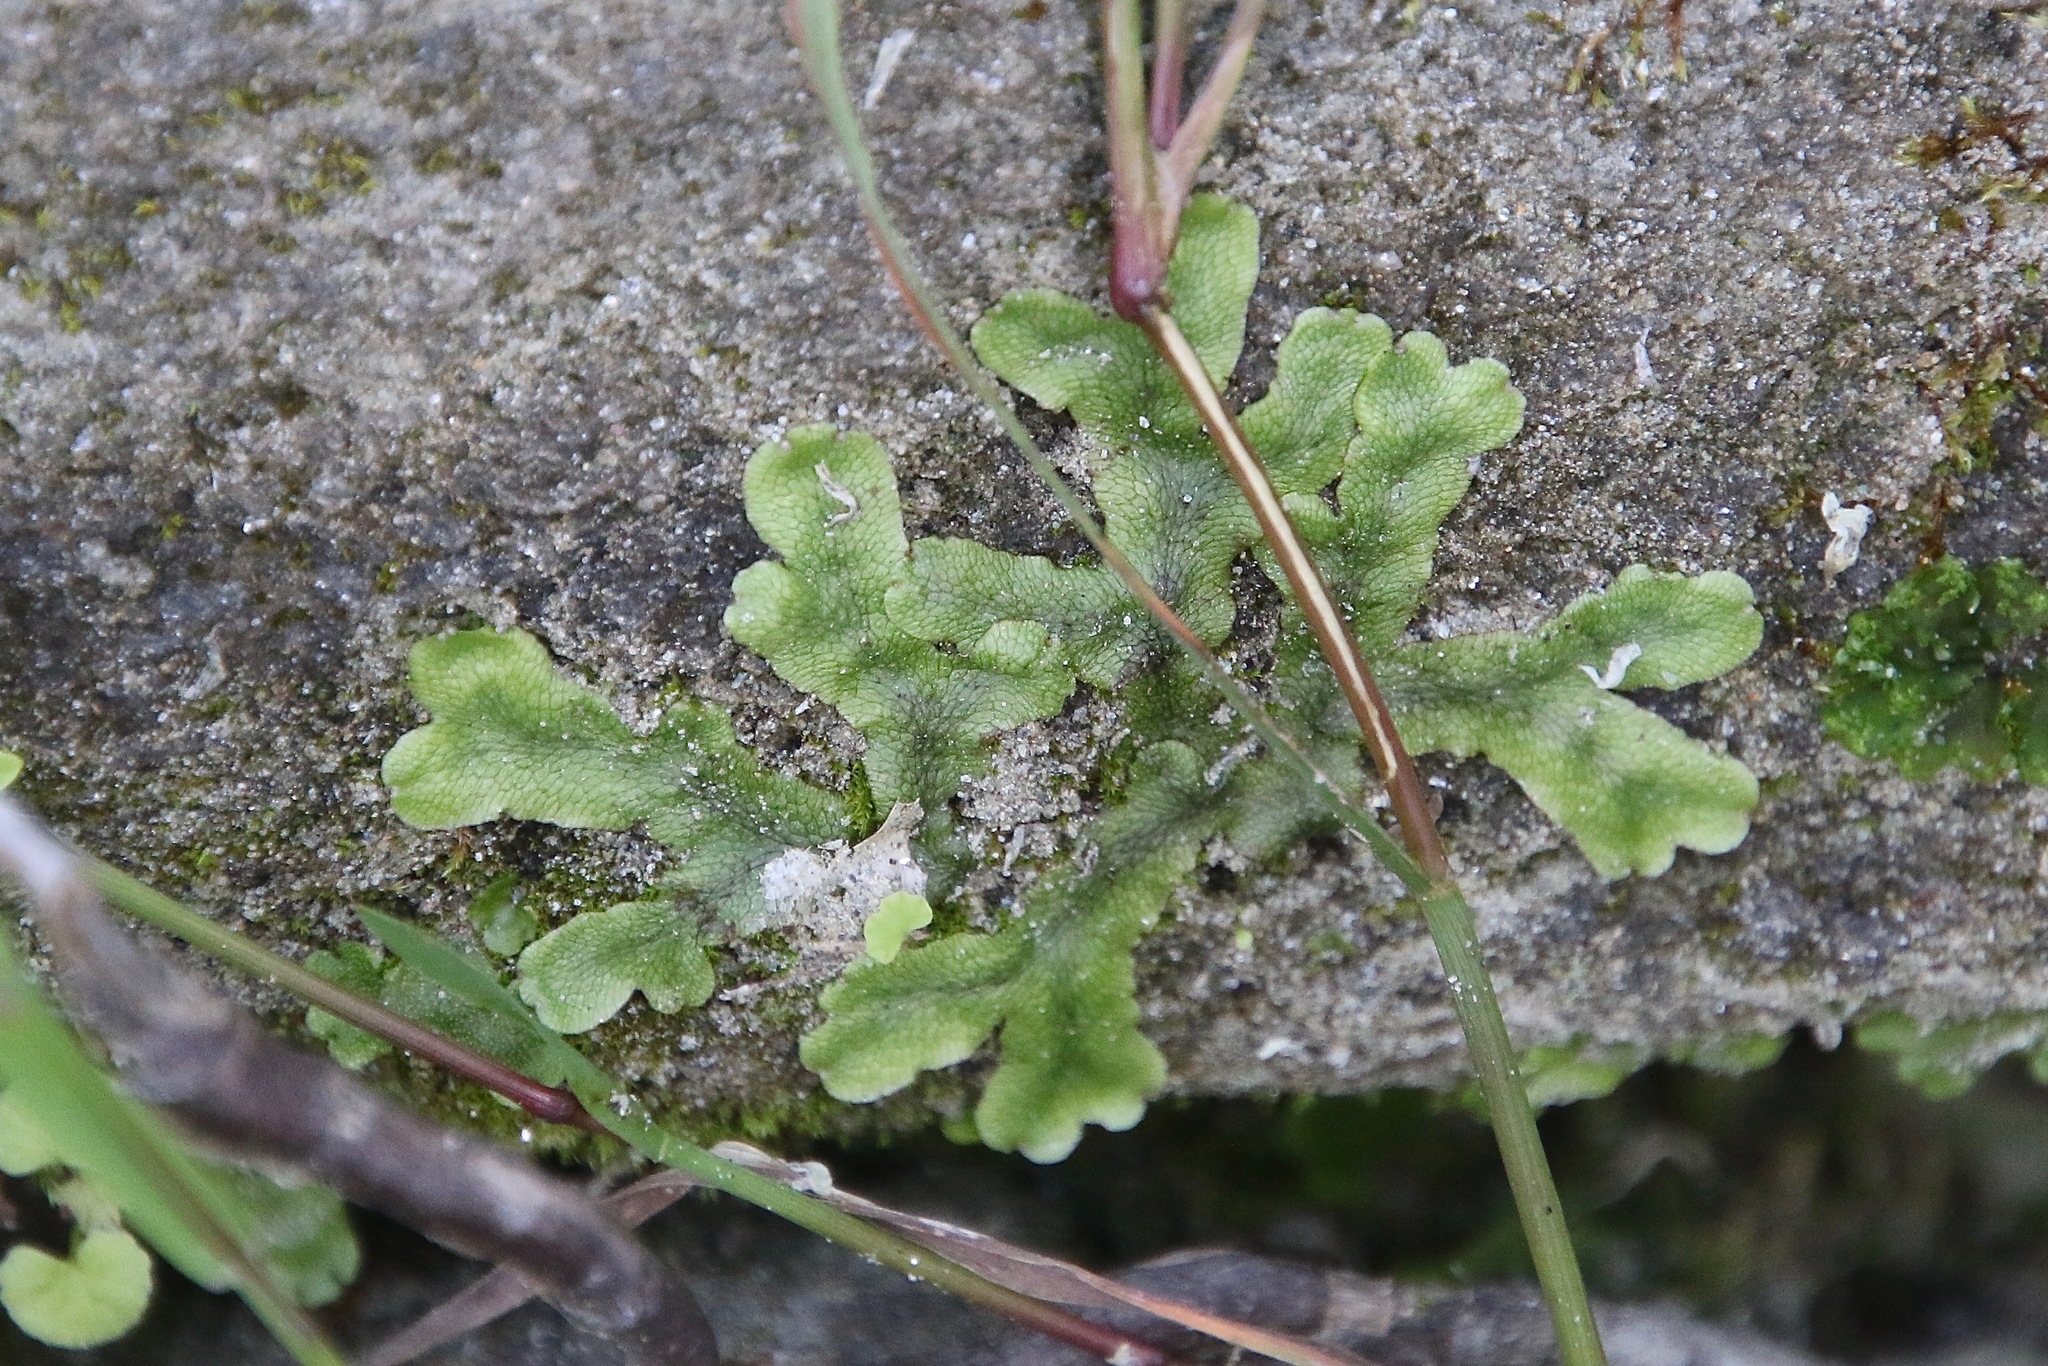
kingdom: Plantae
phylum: Marchantiophyta
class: Marchantiopsida
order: Marchantiales
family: Conocephalaceae
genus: Conocephalum
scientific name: Conocephalum salebrosum
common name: Cat-tongue liverwort
